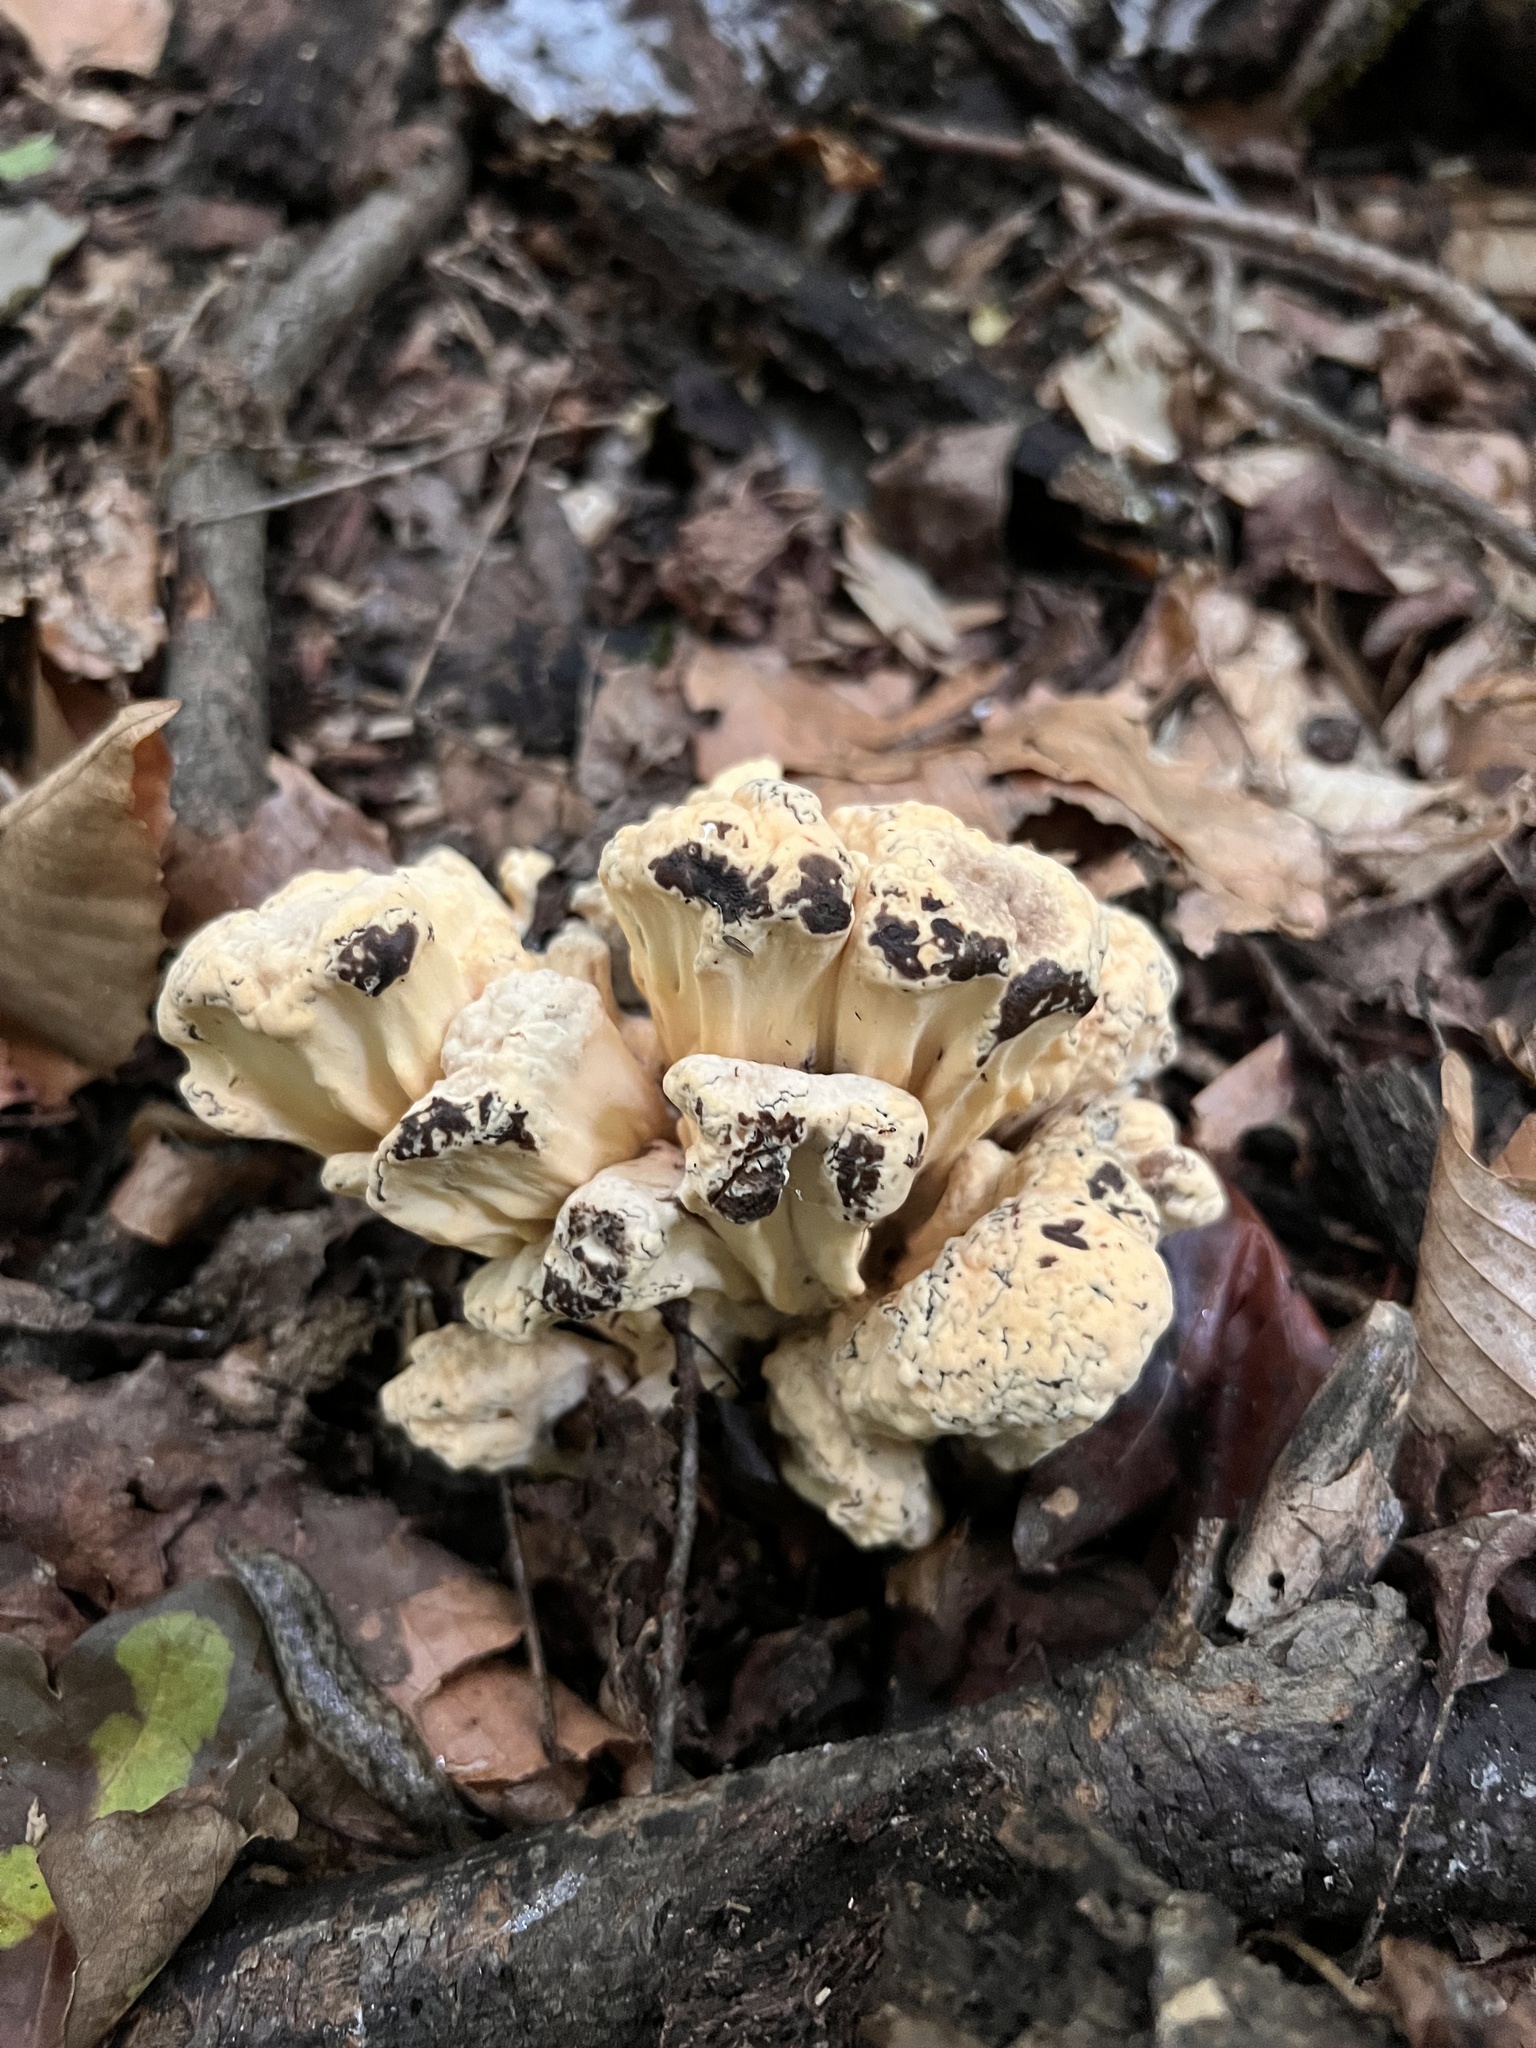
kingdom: Fungi
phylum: Basidiomycota
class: Agaricomycetes
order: Polyporales
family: Meripilaceae
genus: Meripilus
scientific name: Meripilus sumstinei
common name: Black-staining polypore
